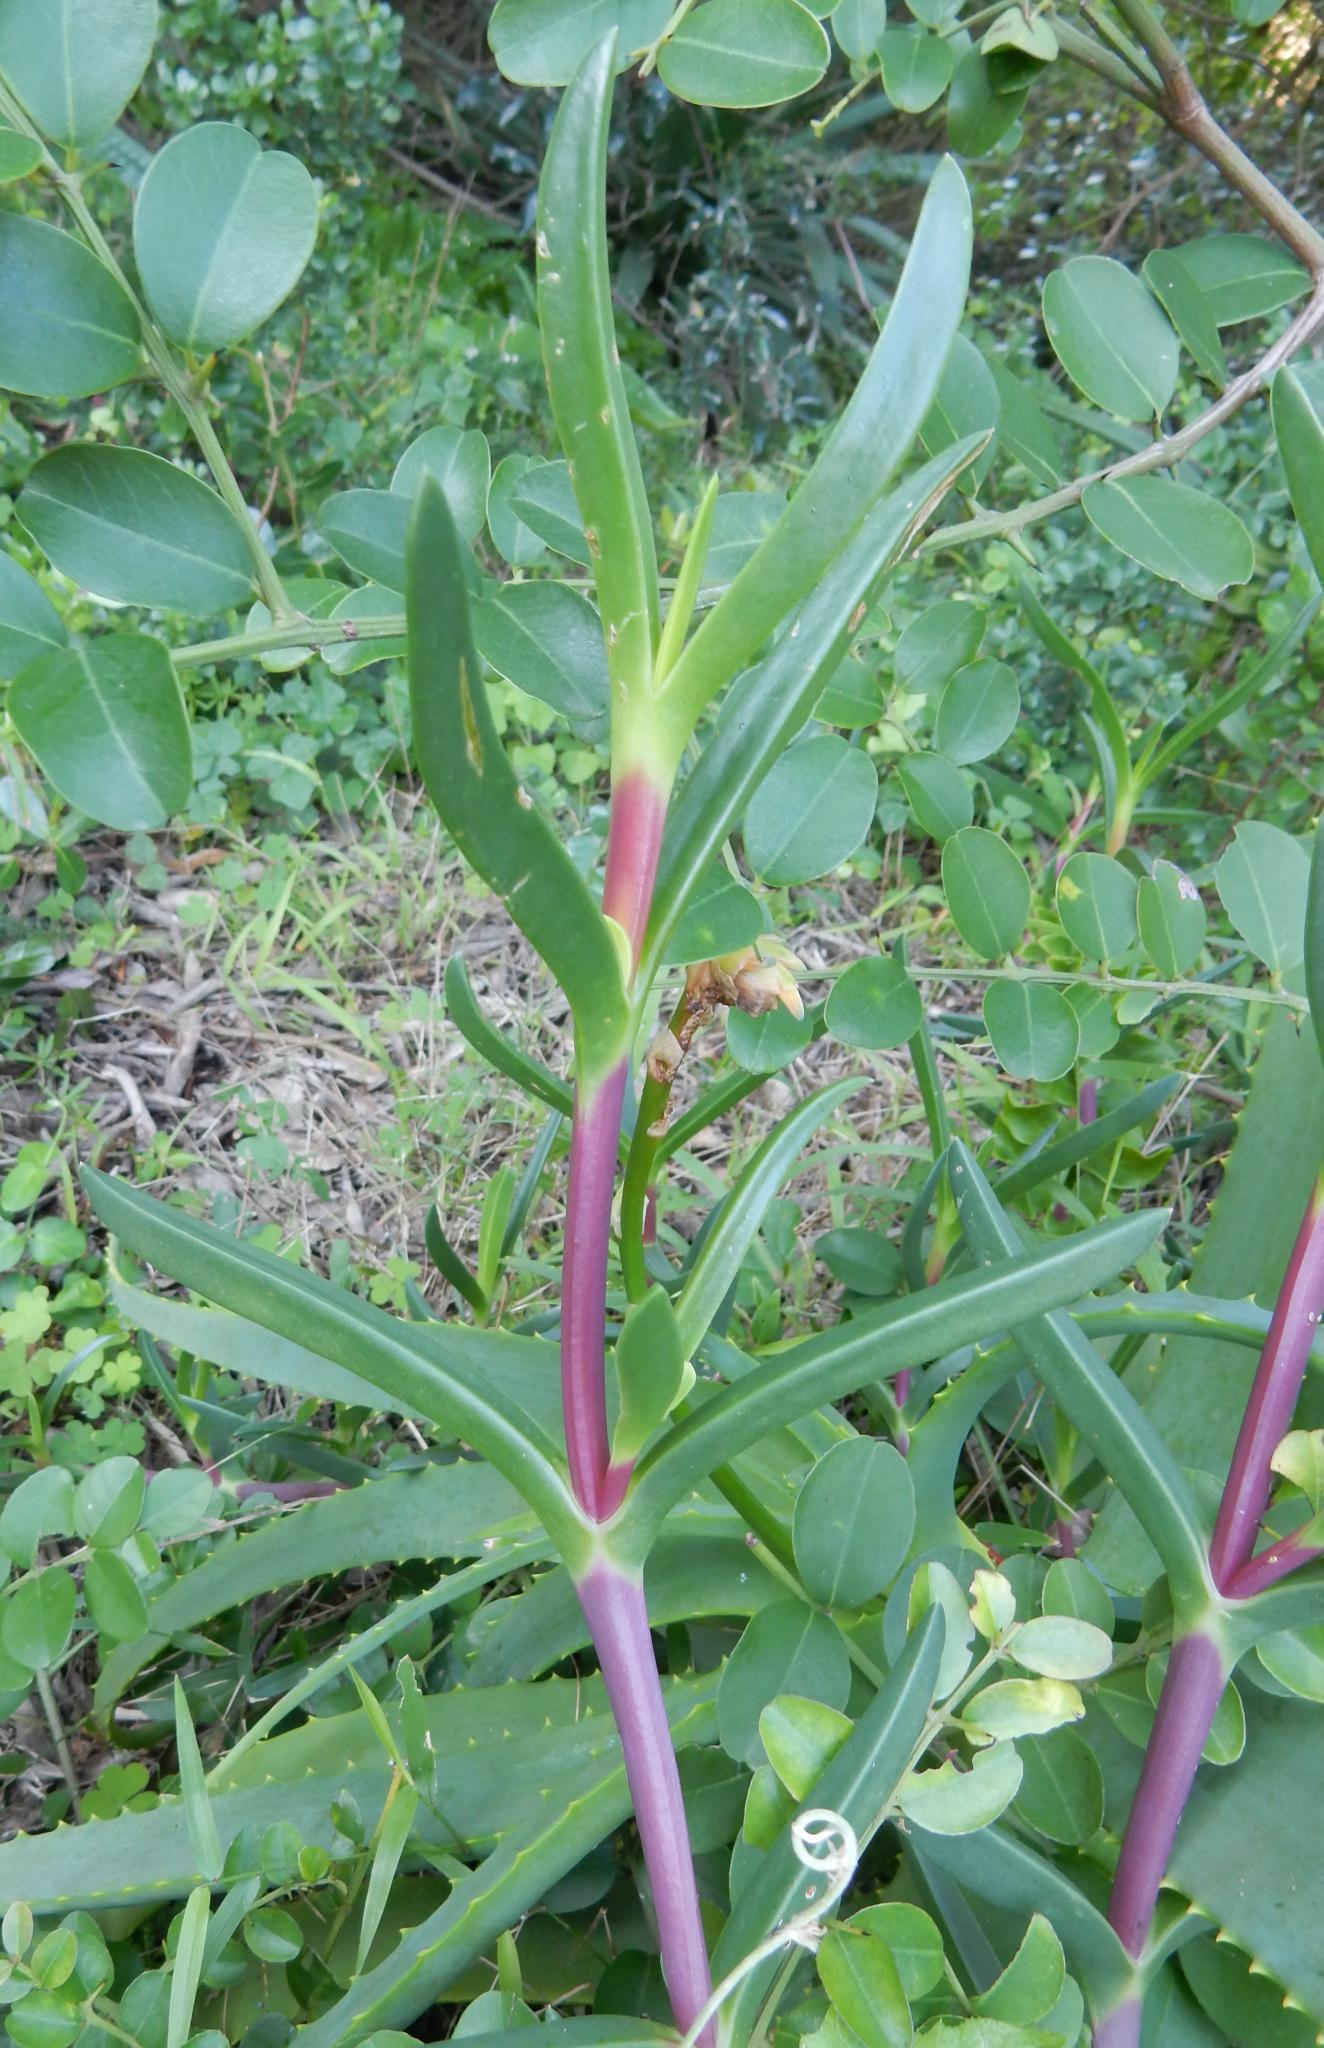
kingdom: Plantae
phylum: Tracheophyta
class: Magnoliopsida
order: Caryophyllales
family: Aizoaceae
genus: Carpobrotus
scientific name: Carpobrotus deliciosus
